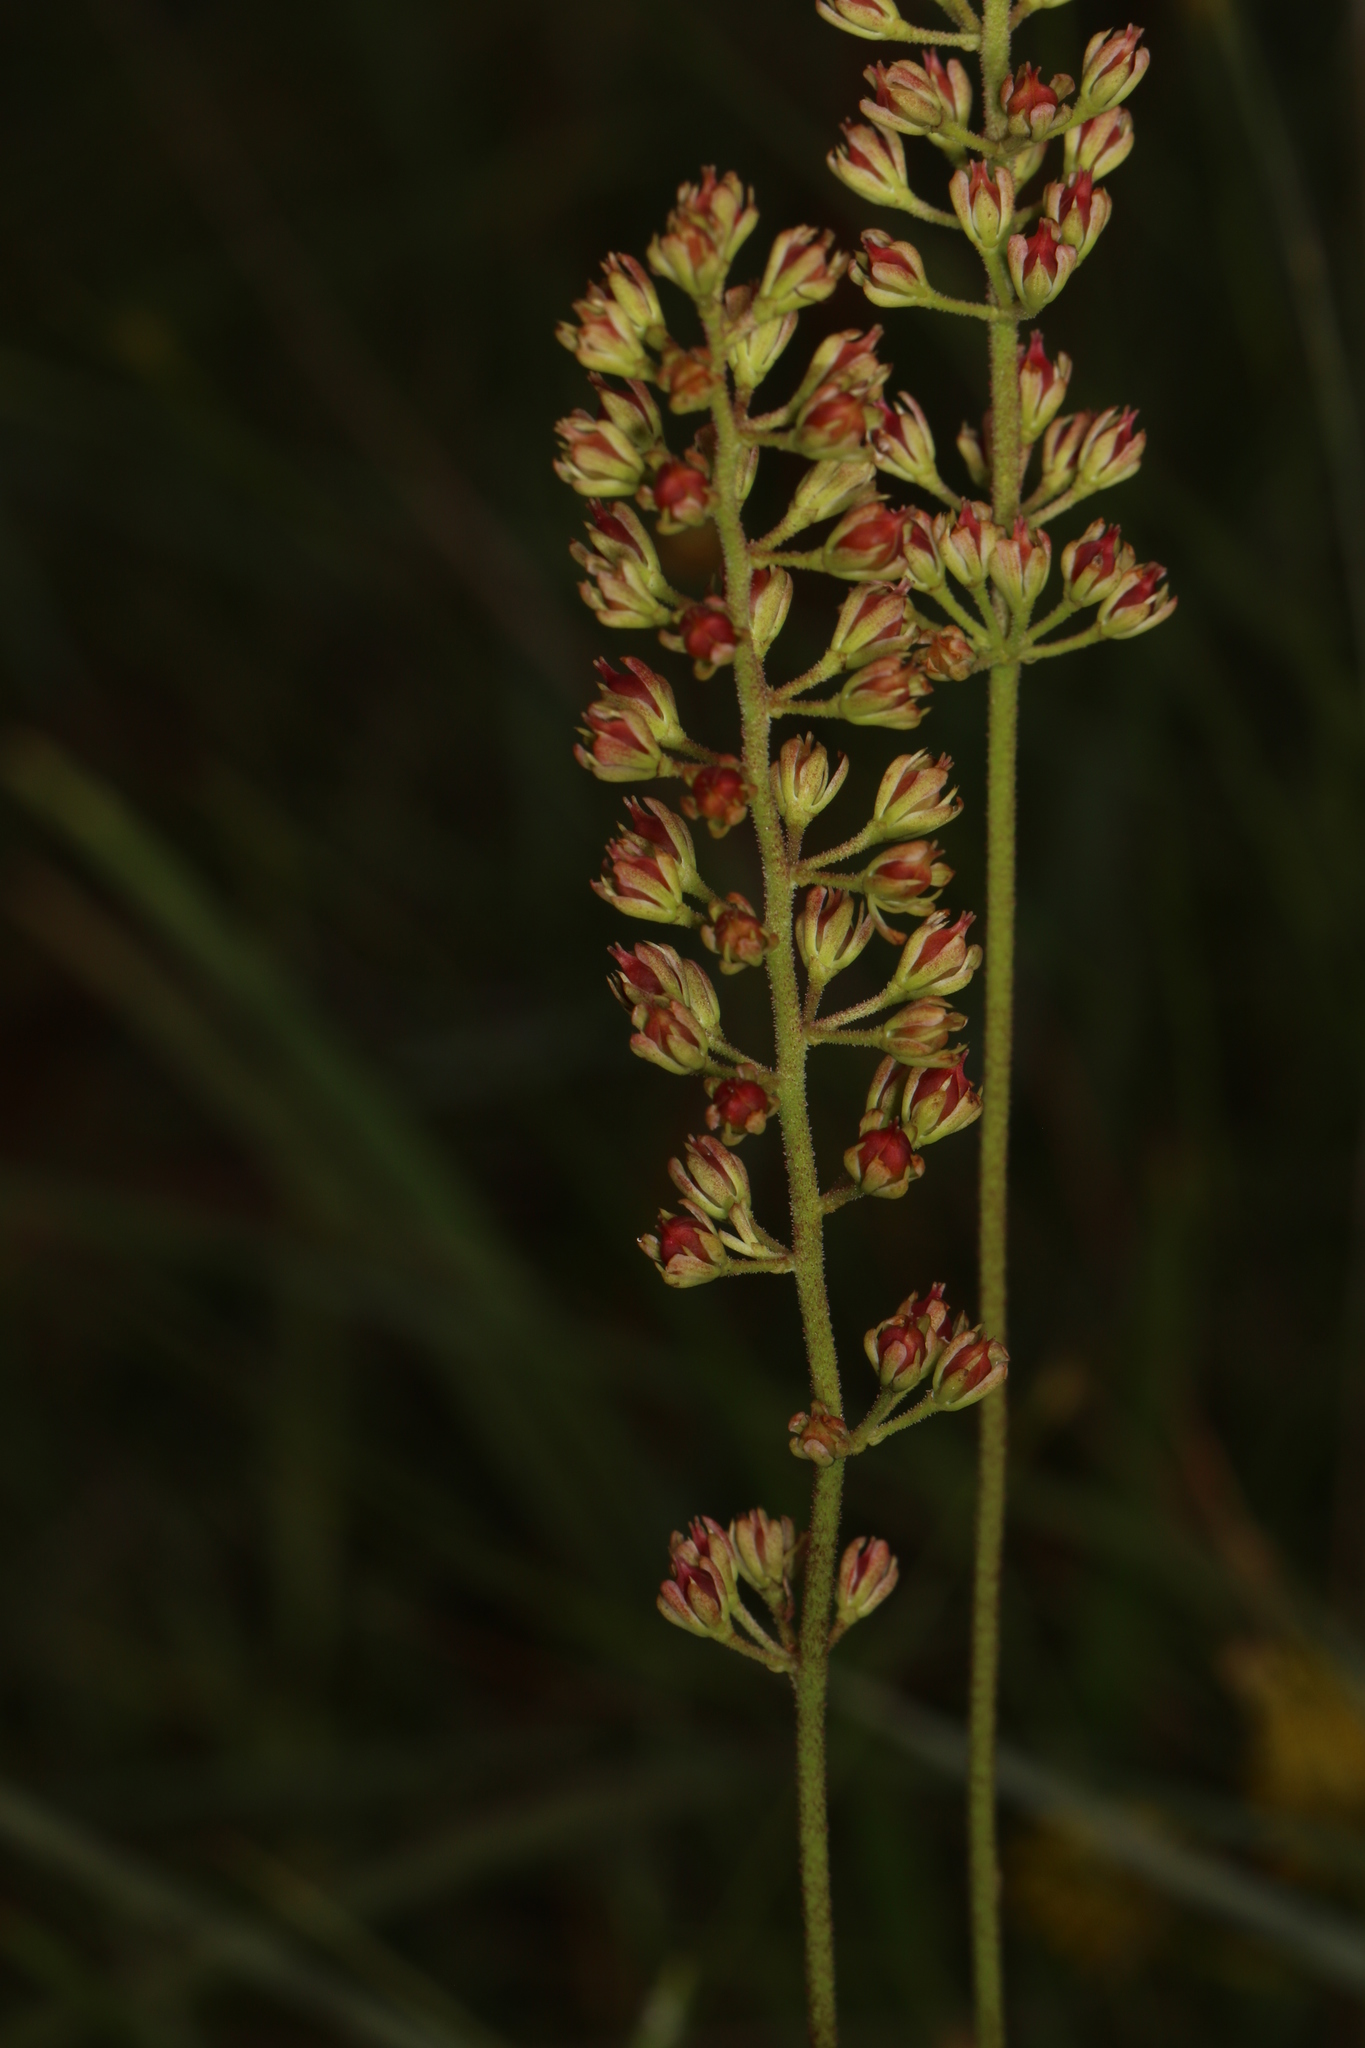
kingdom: Plantae
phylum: Tracheophyta
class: Liliopsida
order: Alismatales
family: Tofieldiaceae
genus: Triantha
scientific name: Triantha racemosa
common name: Coastal false asphodel
